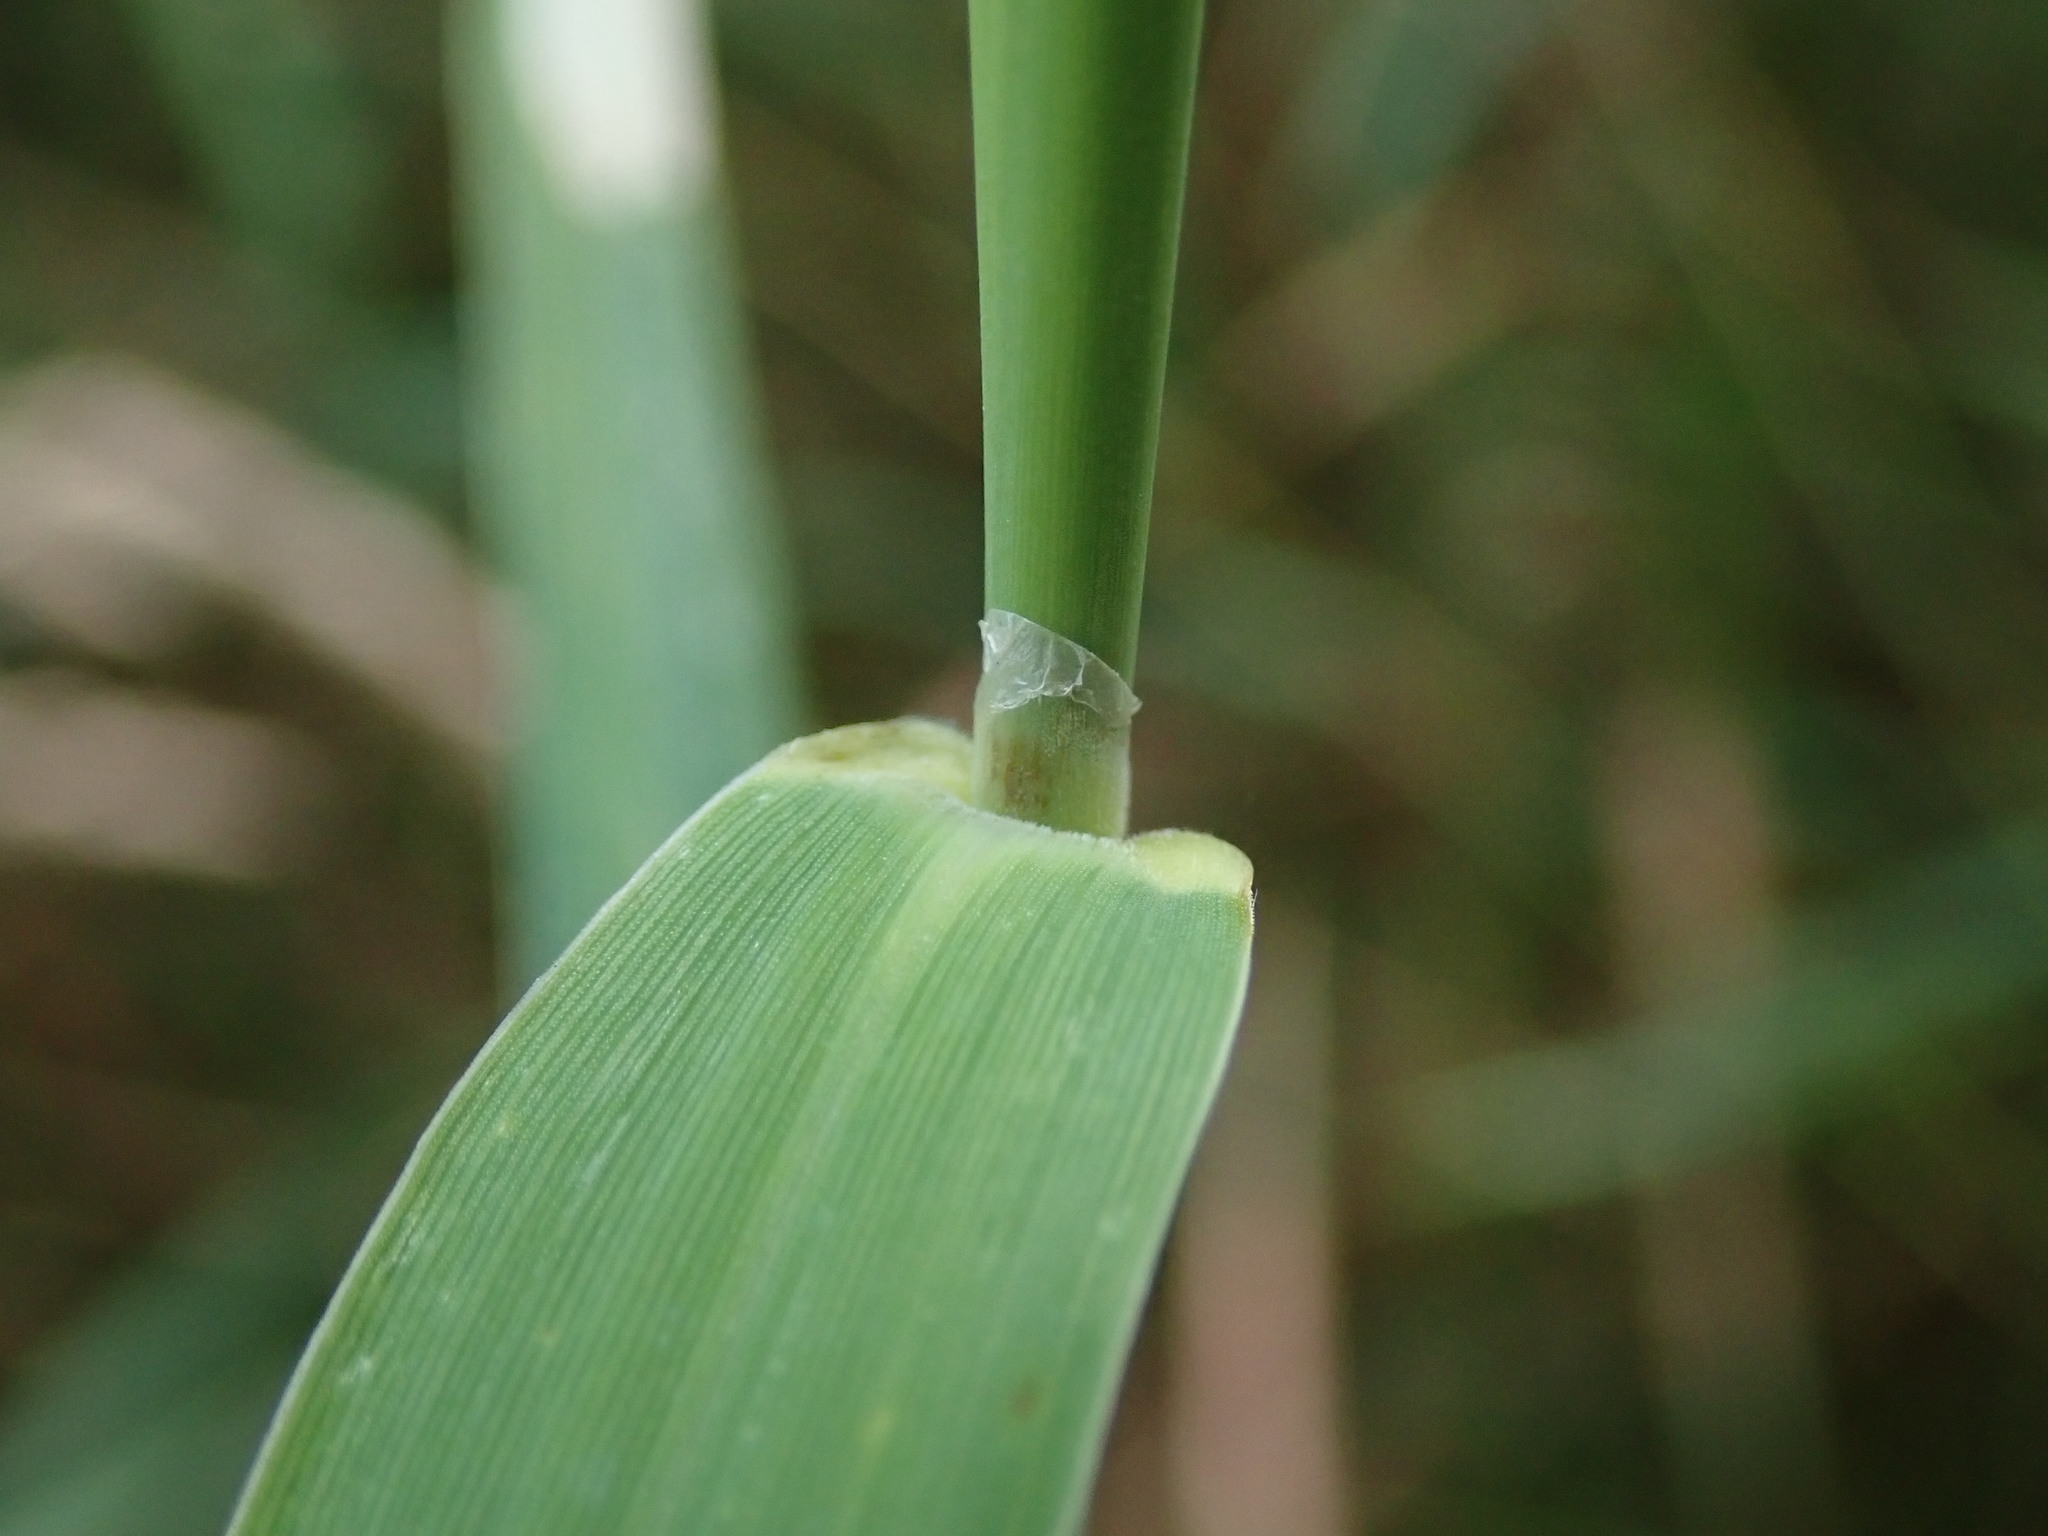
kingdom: Plantae
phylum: Tracheophyta
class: Liliopsida
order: Poales
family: Poaceae
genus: Phalaris
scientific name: Phalaris arundinacea
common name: Reed canary-grass
